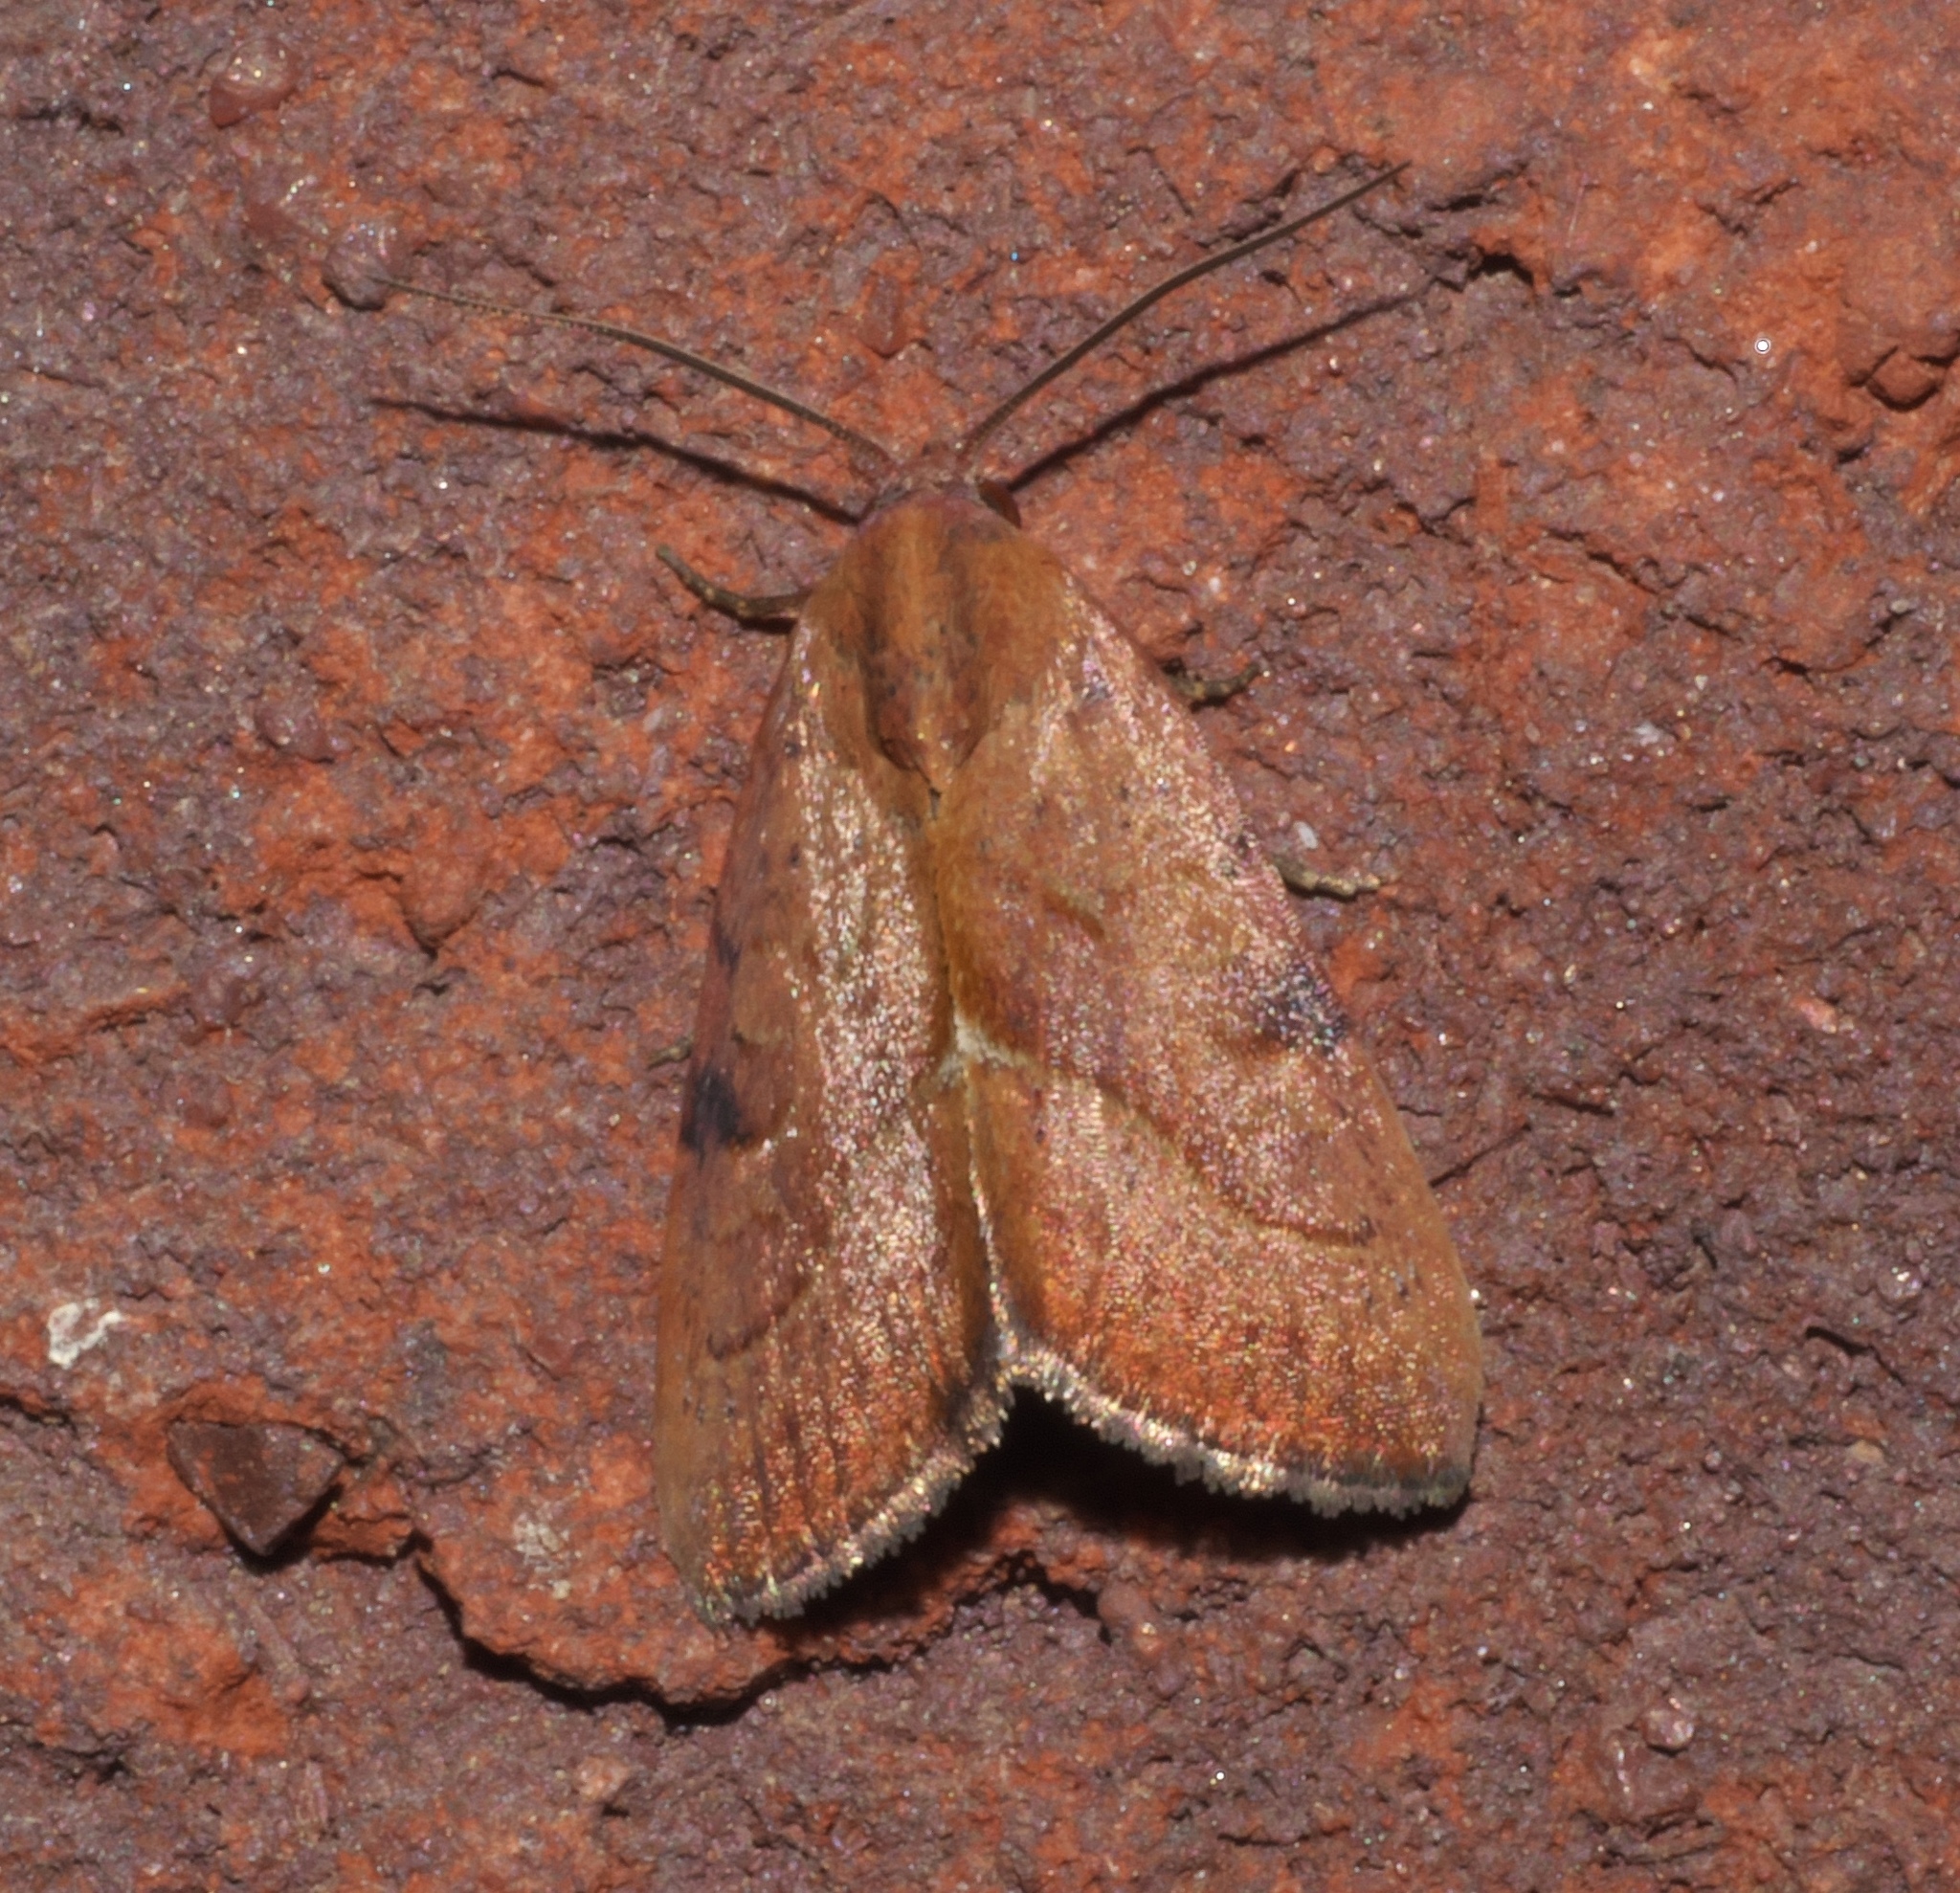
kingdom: Animalia
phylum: Arthropoda
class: Insecta
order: Lepidoptera
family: Noctuidae
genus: Galgula
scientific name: Galgula partita
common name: Wedgeling
